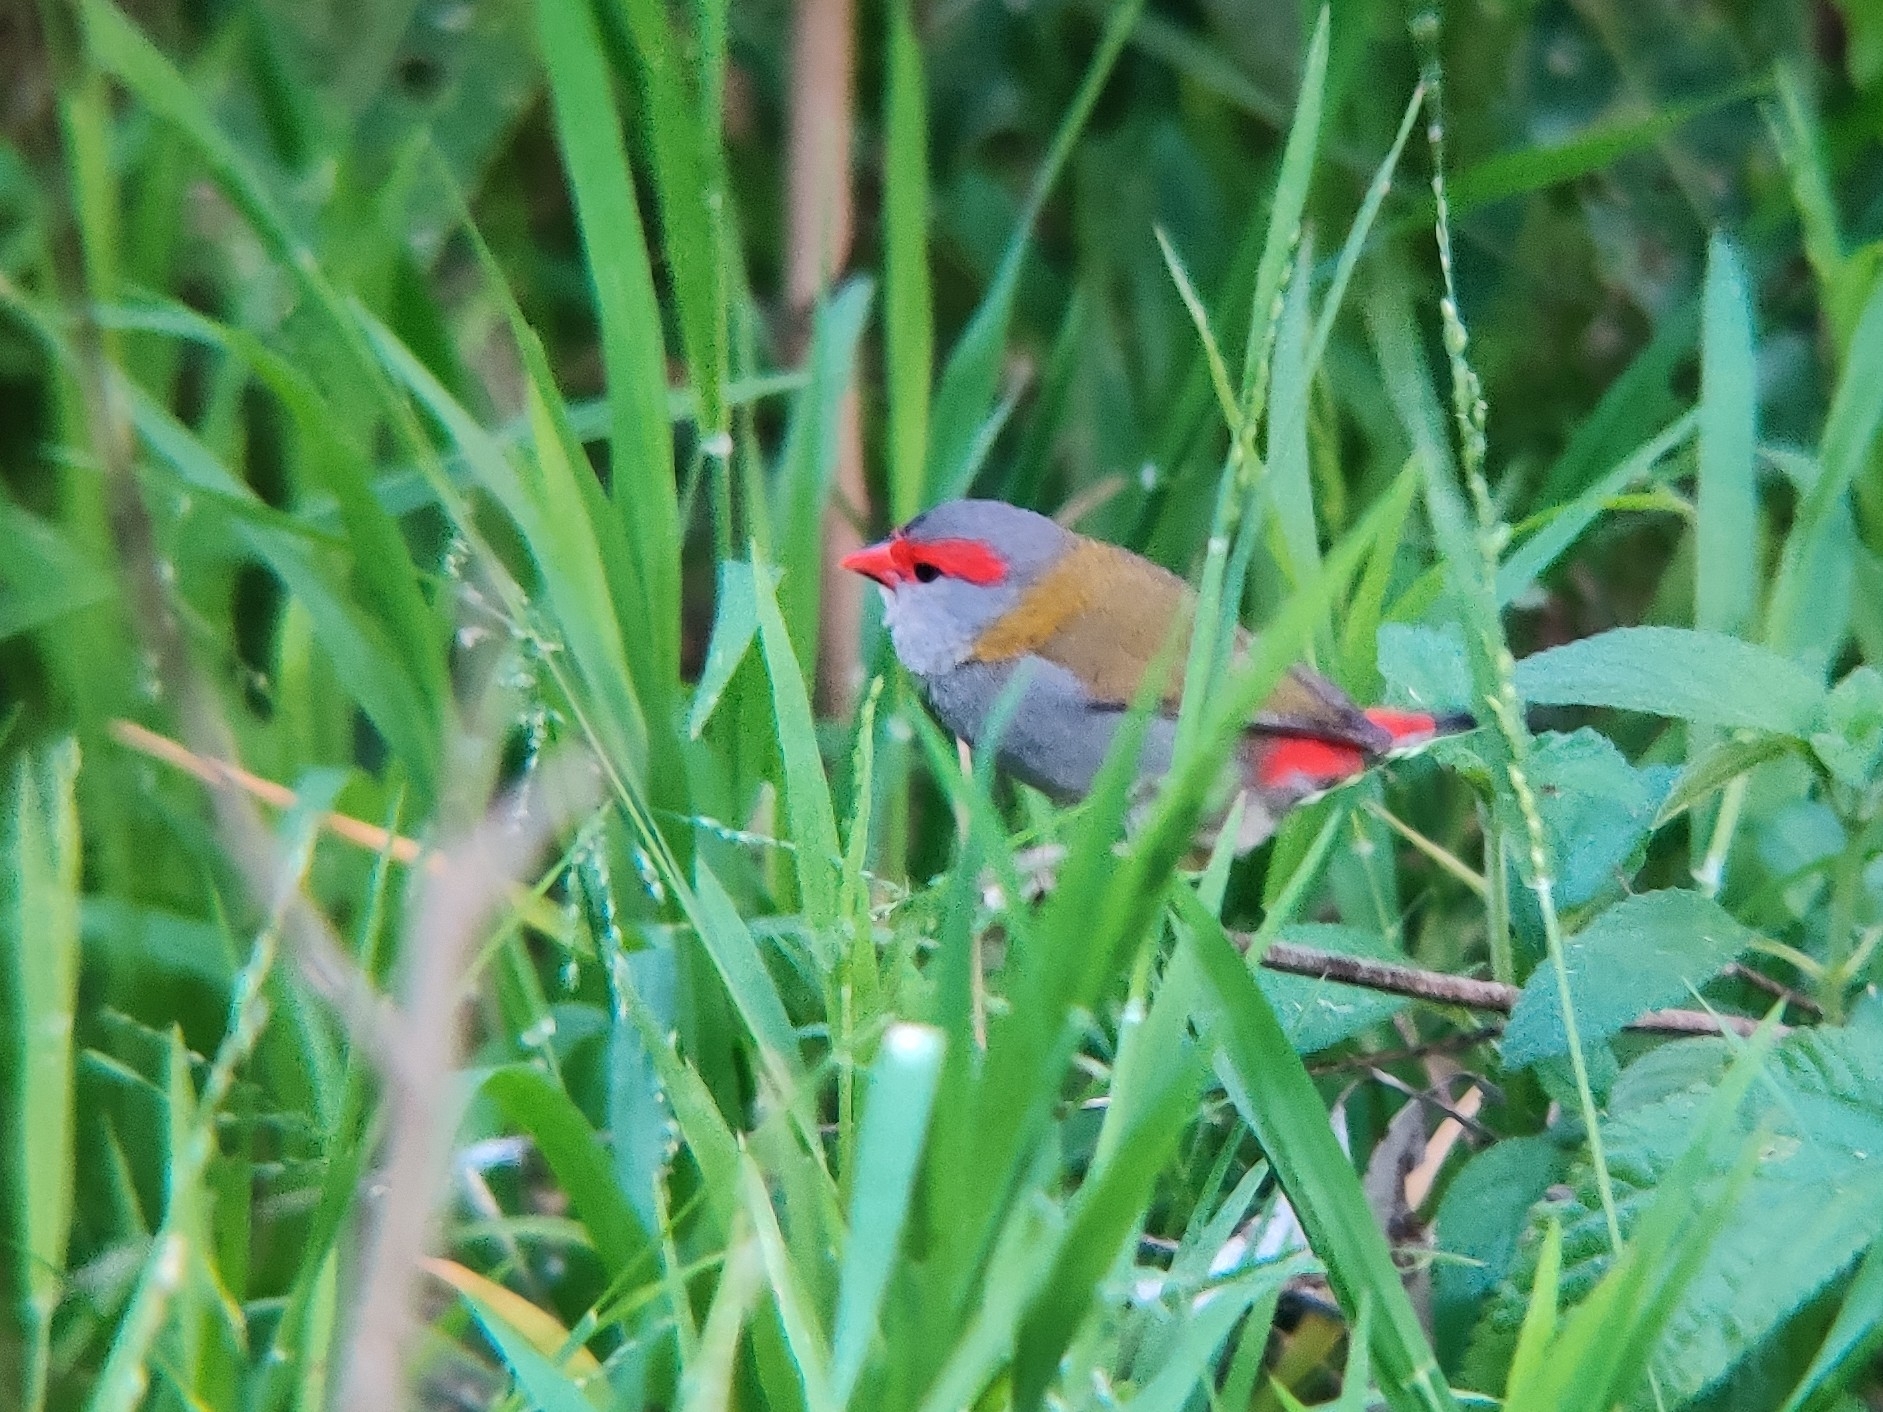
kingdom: Animalia
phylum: Chordata
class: Aves
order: Passeriformes
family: Estrildidae
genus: Neochmia
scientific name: Neochmia temporalis
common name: Red-browed finch
